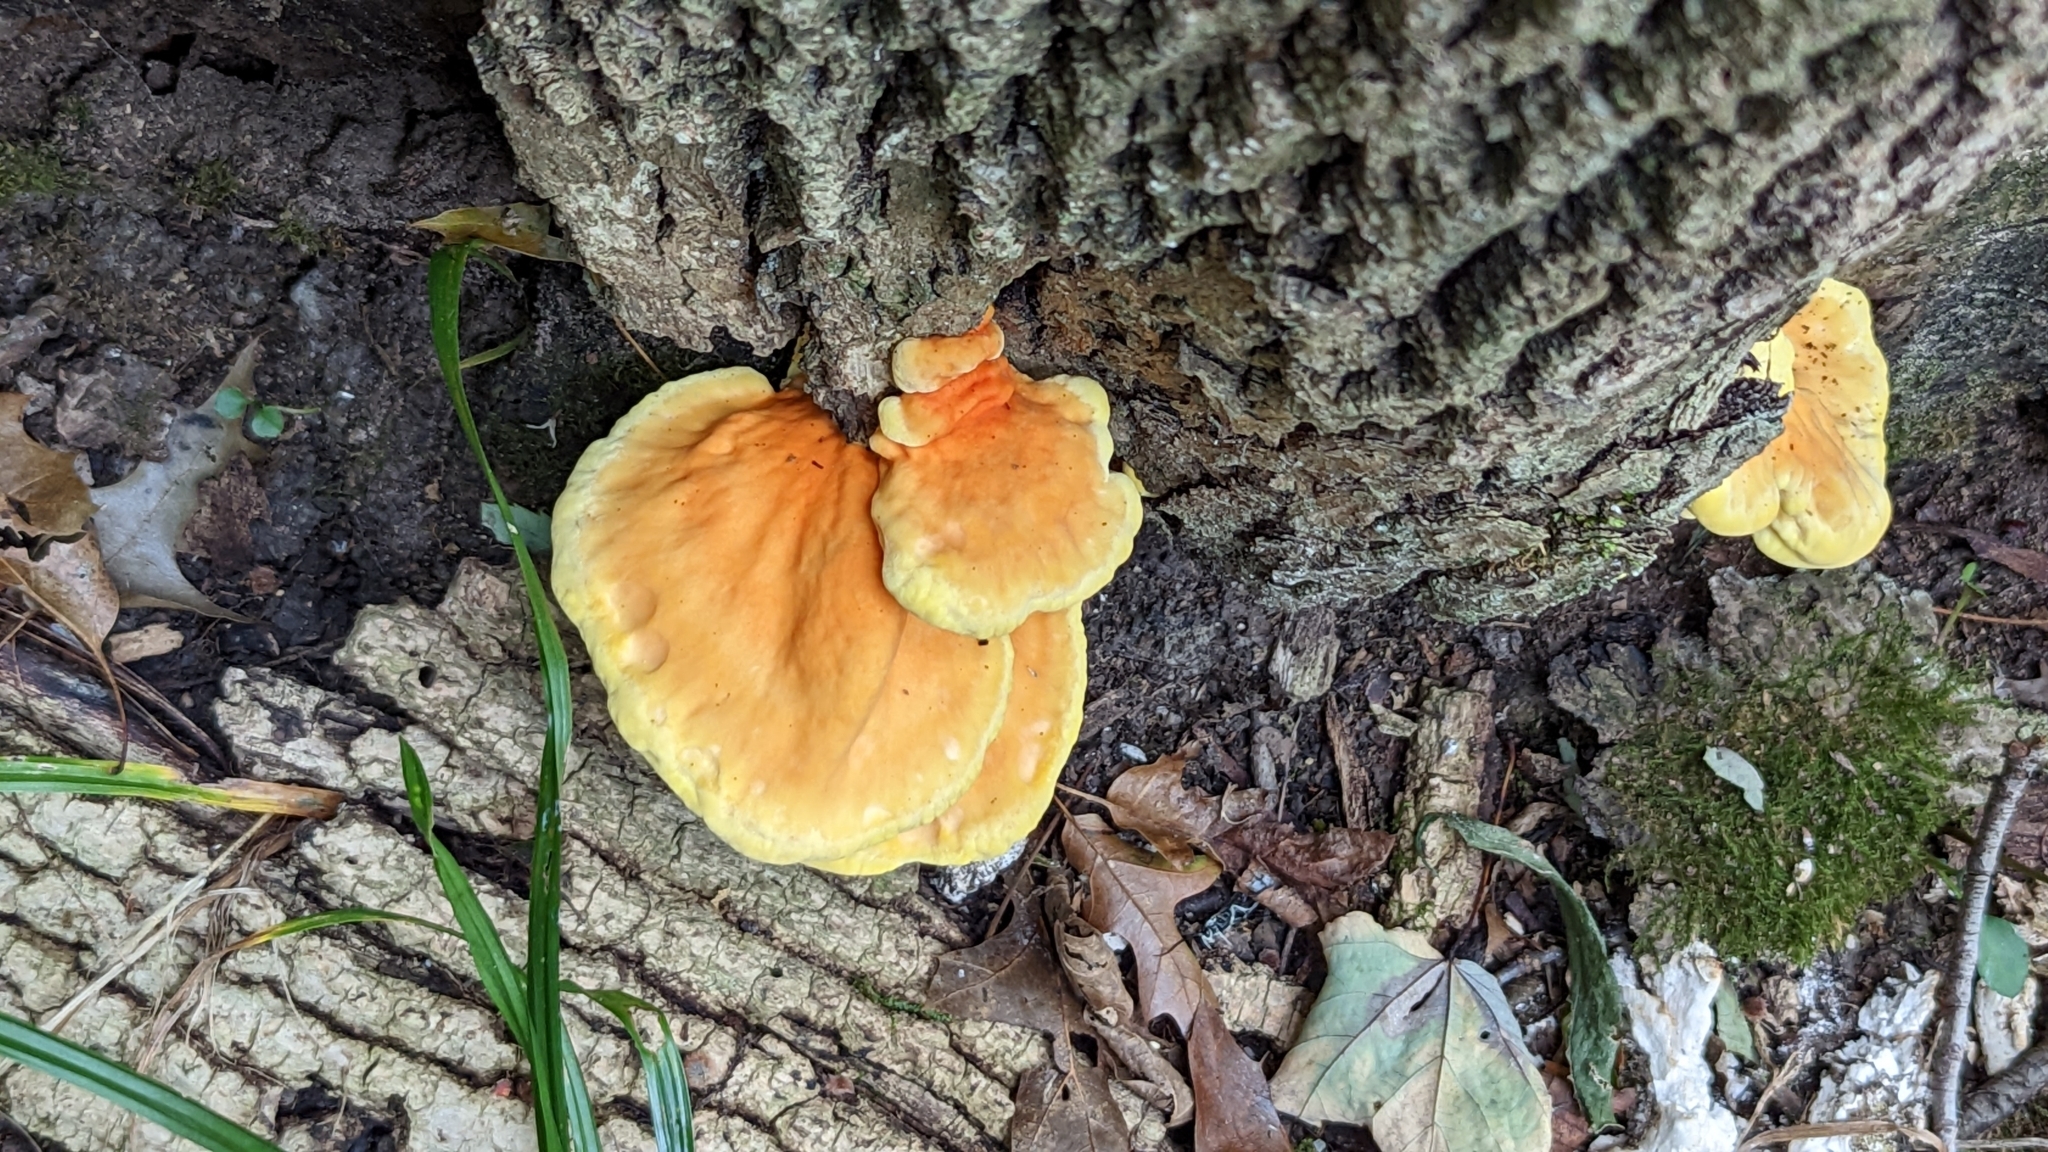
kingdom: Fungi
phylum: Basidiomycota
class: Agaricomycetes
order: Polyporales
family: Laetiporaceae
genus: Laetiporus
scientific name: Laetiporus sulphureus
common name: Chicken of the woods
